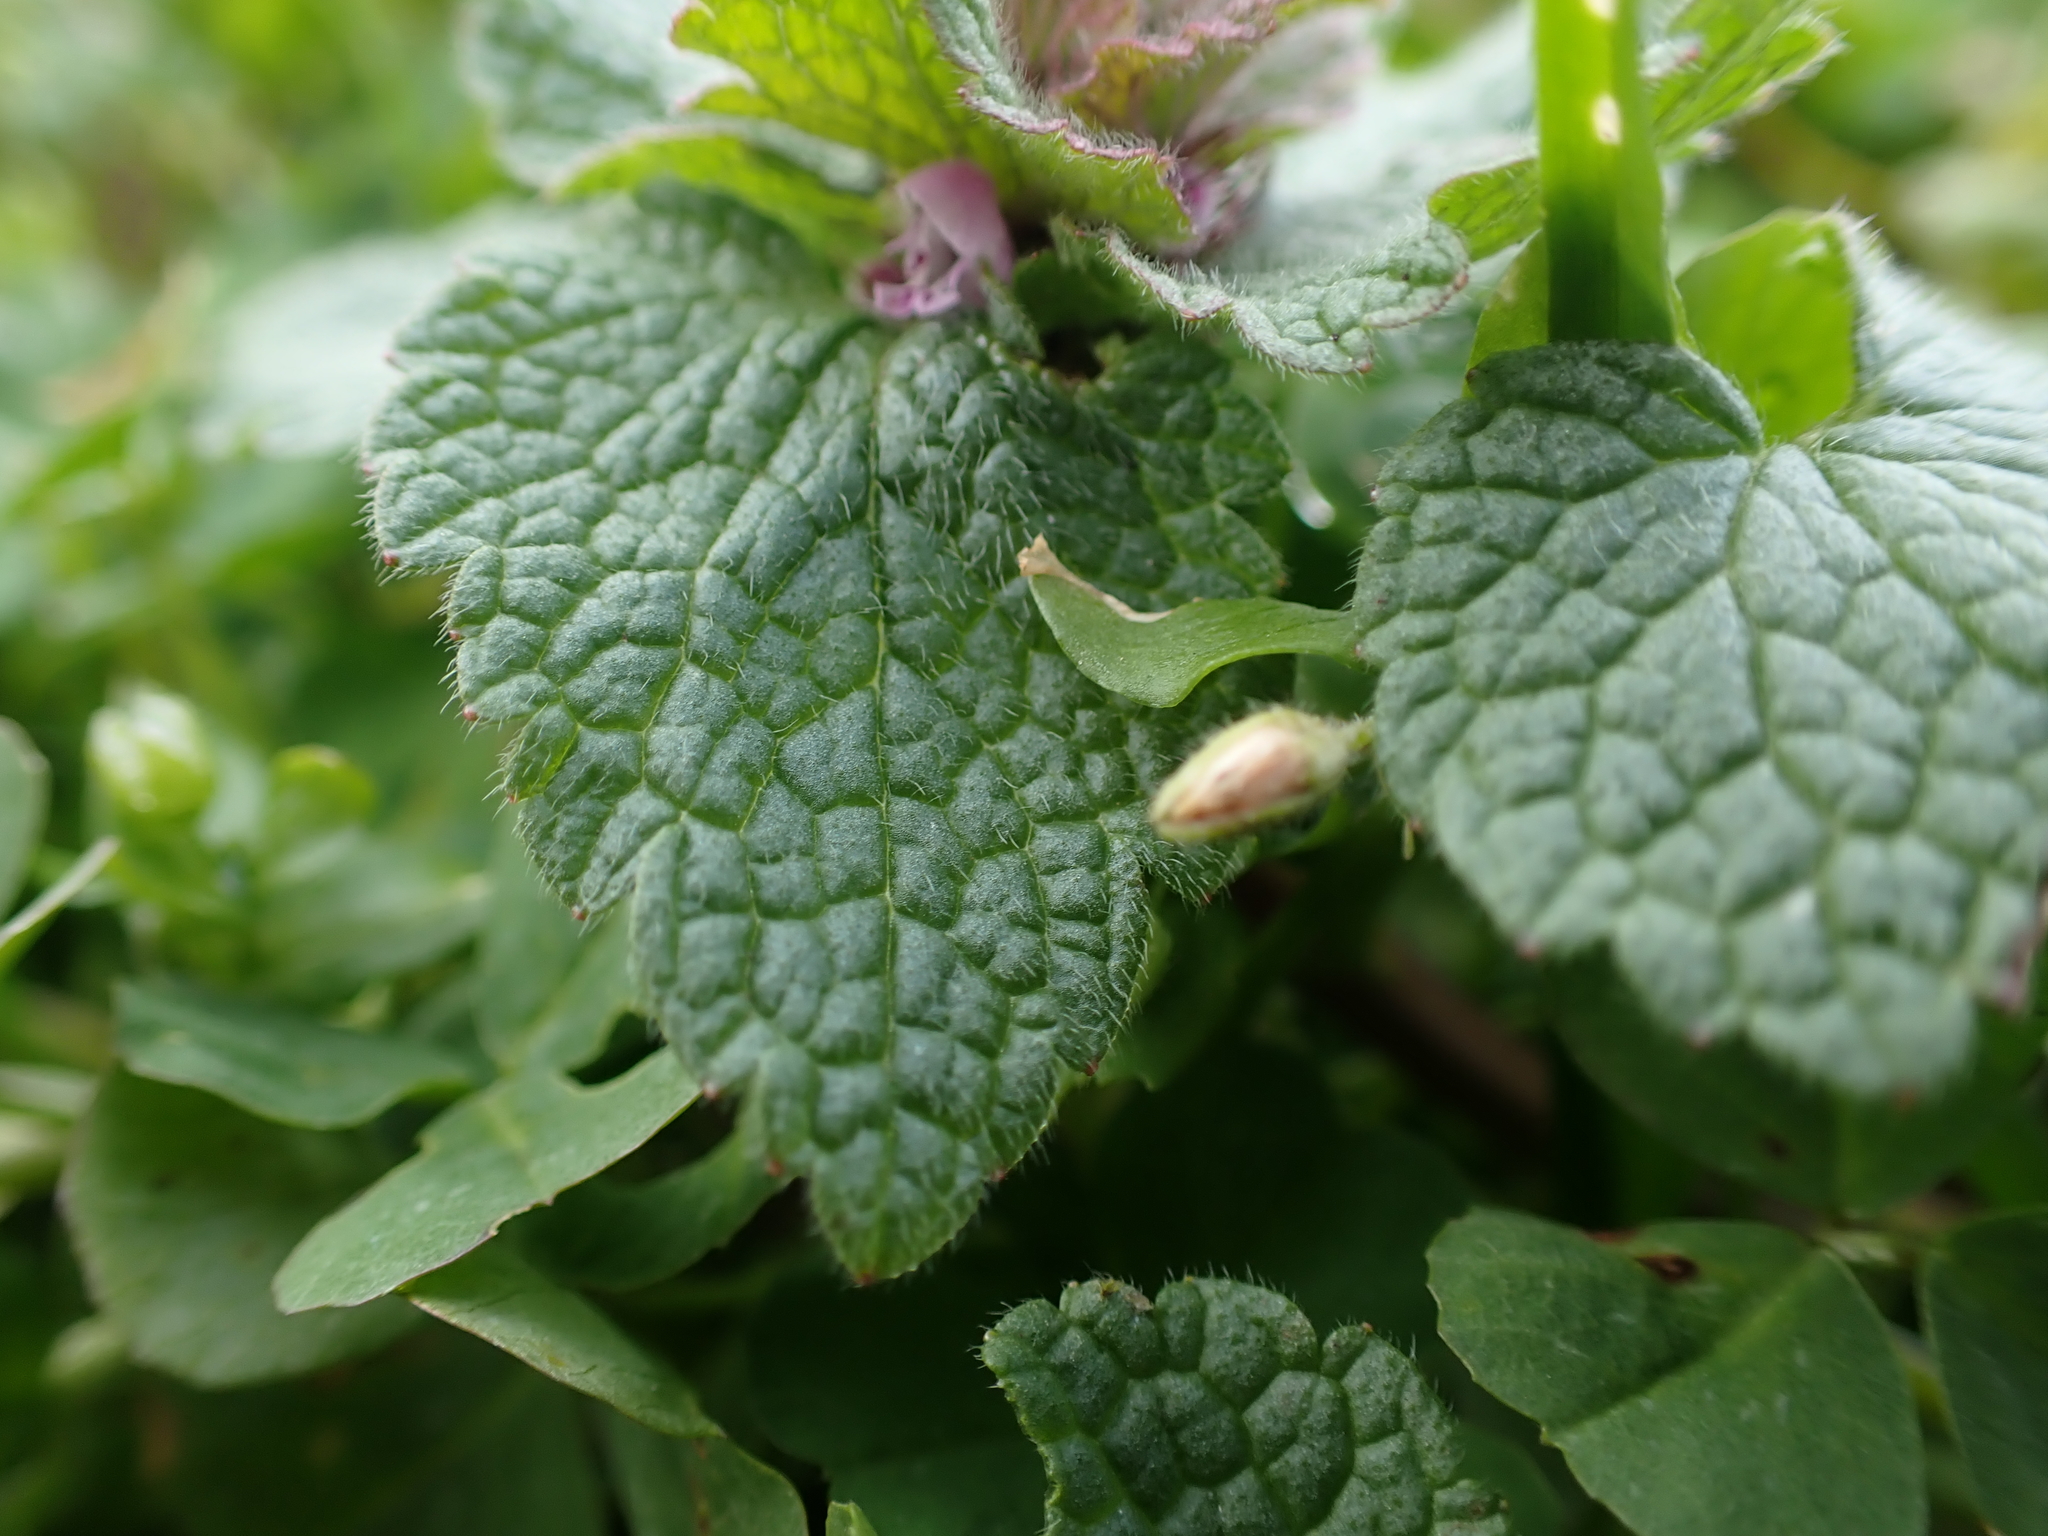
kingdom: Plantae
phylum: Tracheophyta
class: Magnoliopsida
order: Lamiales
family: Lamiaceae
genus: Lamium
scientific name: Lamium purpureum
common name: Red dead-nettle
